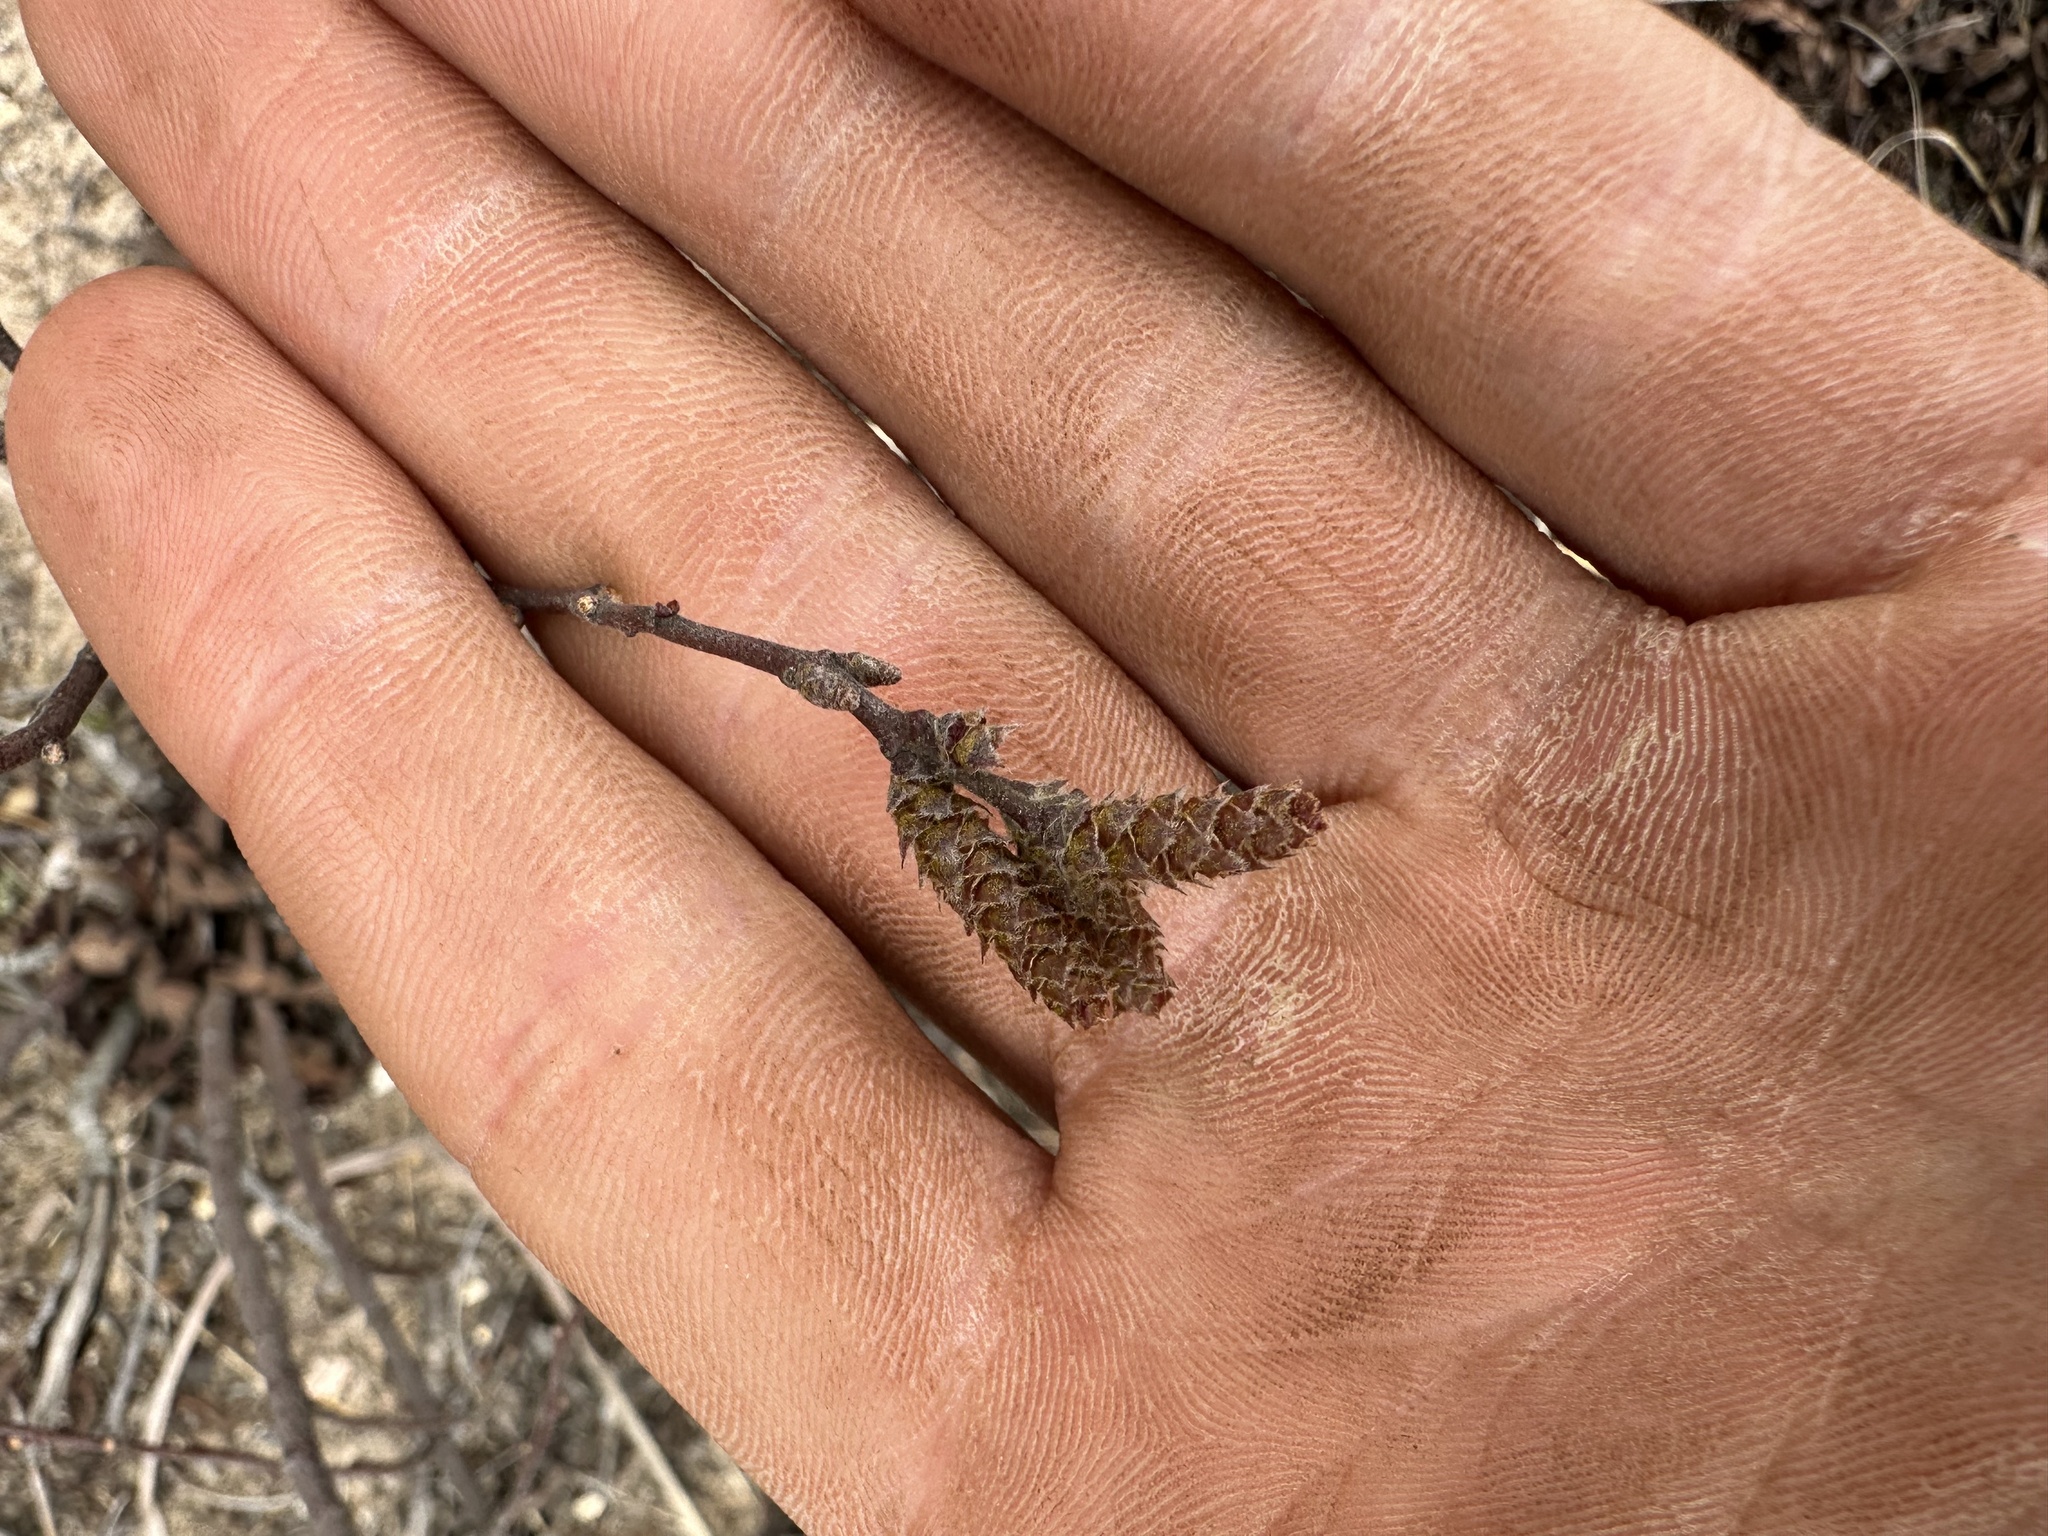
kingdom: Plantae
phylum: Tracheophyta
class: Magnoliopsida
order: Fagales
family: Myricaceae
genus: Comptonia
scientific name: Comptonia peregrina
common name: Sweet-fern
